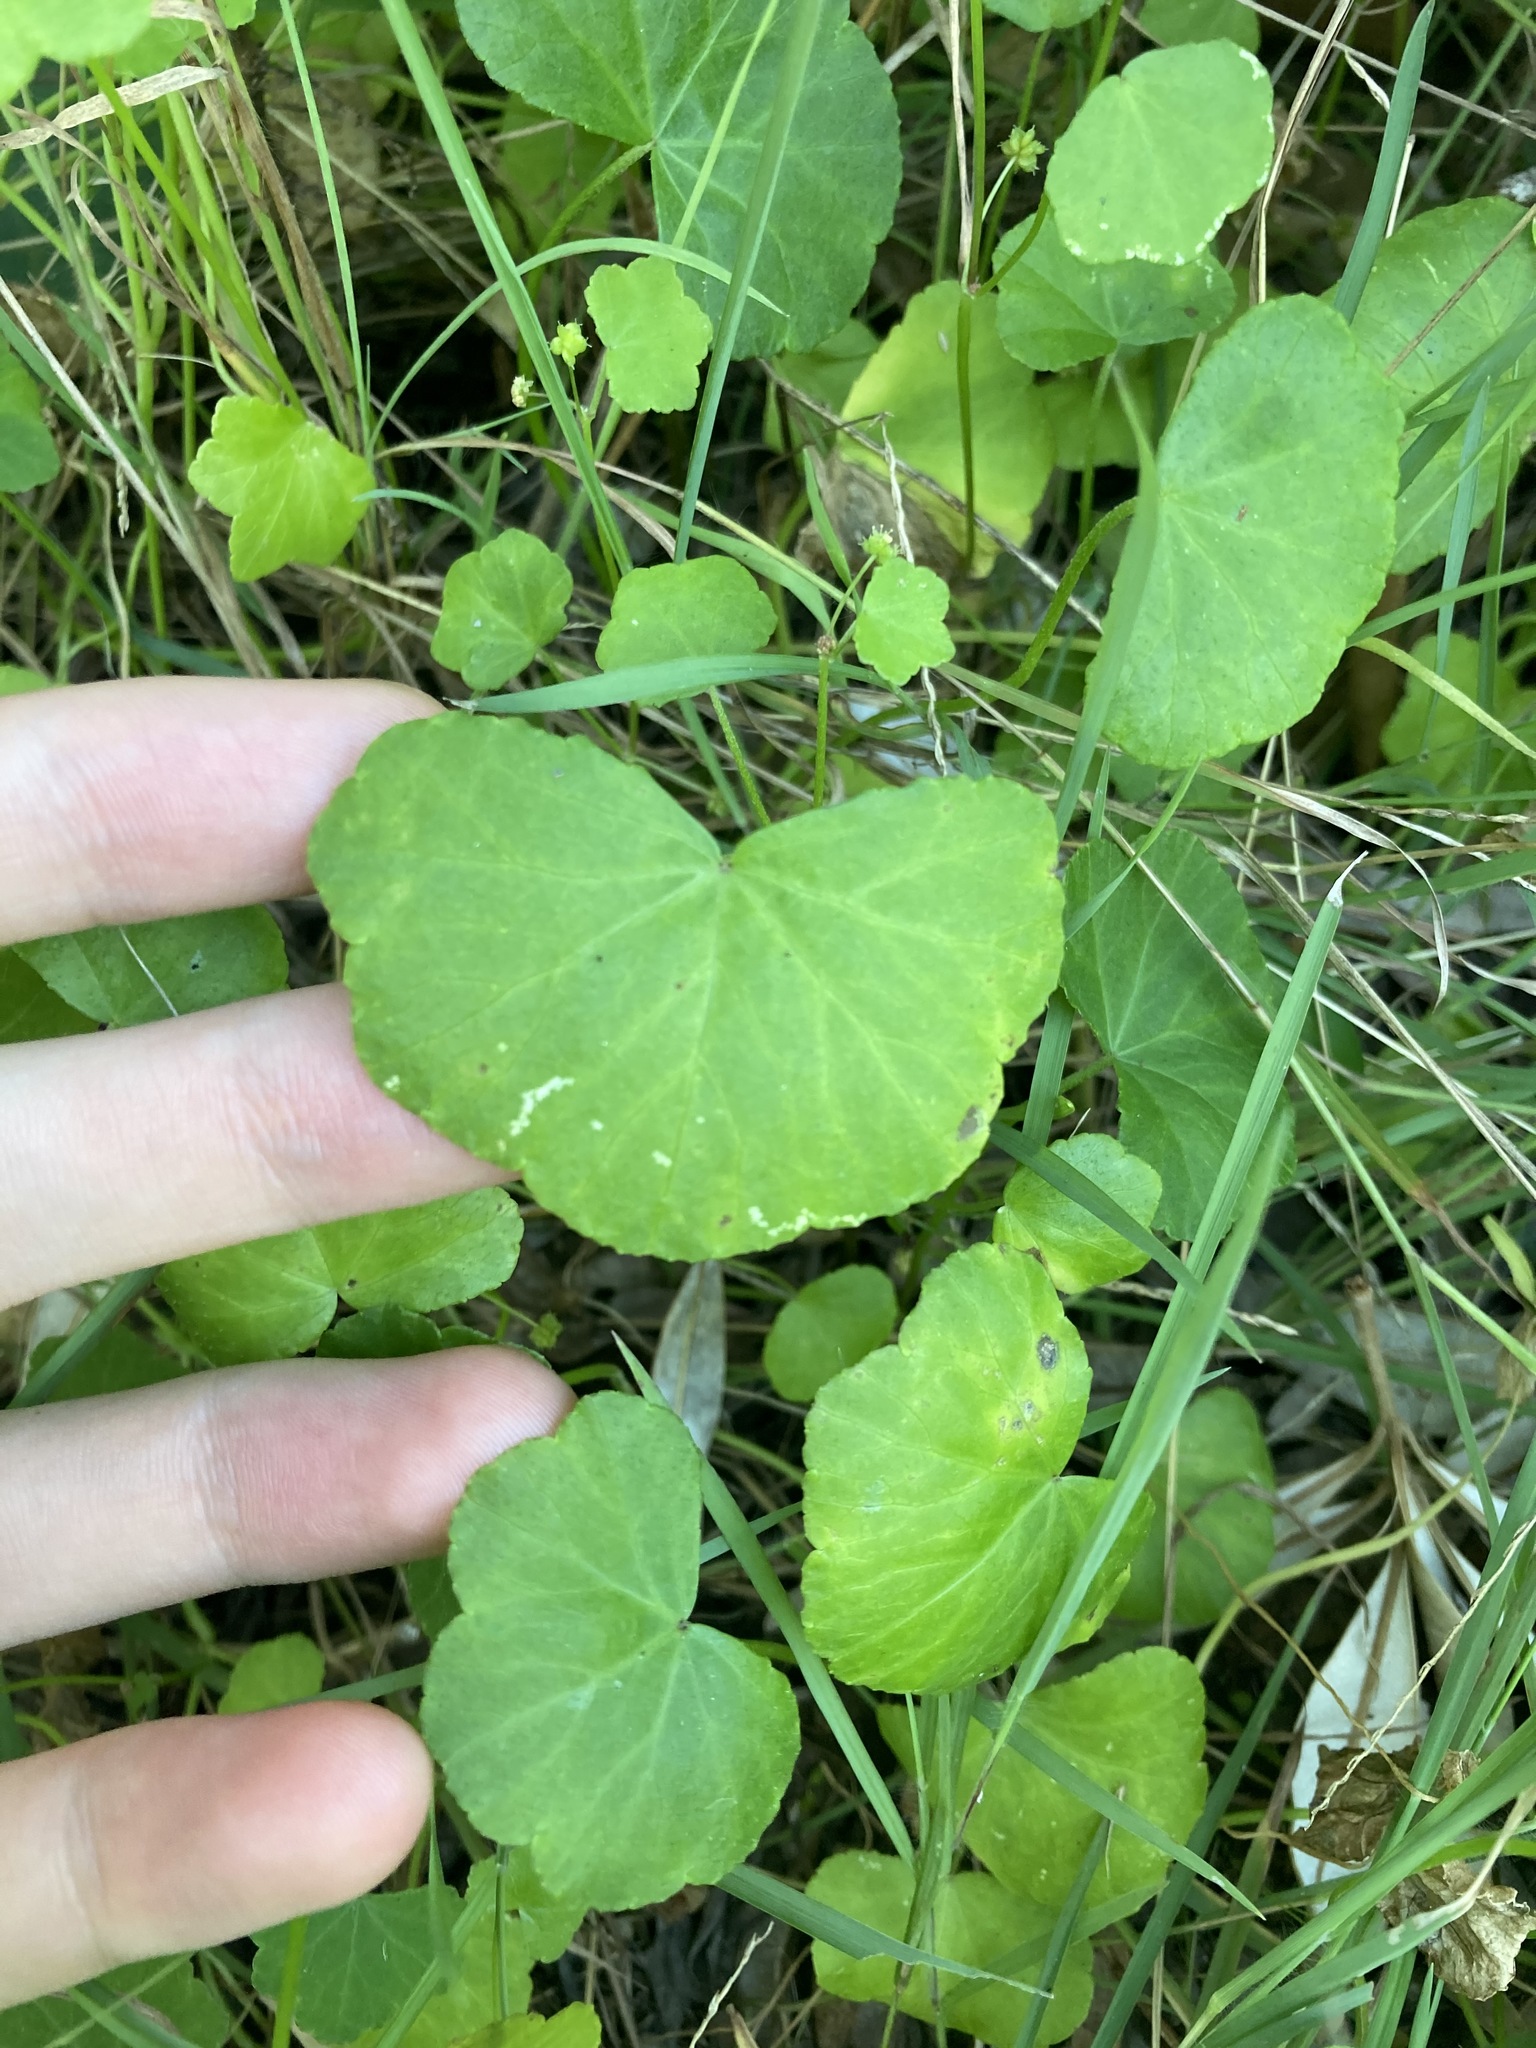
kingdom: Plantae
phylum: Tracheophyta
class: Magnoliopsida
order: Apiales
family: Araliaceae
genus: Hydrocotyle
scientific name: Hydrocotyle hirta
